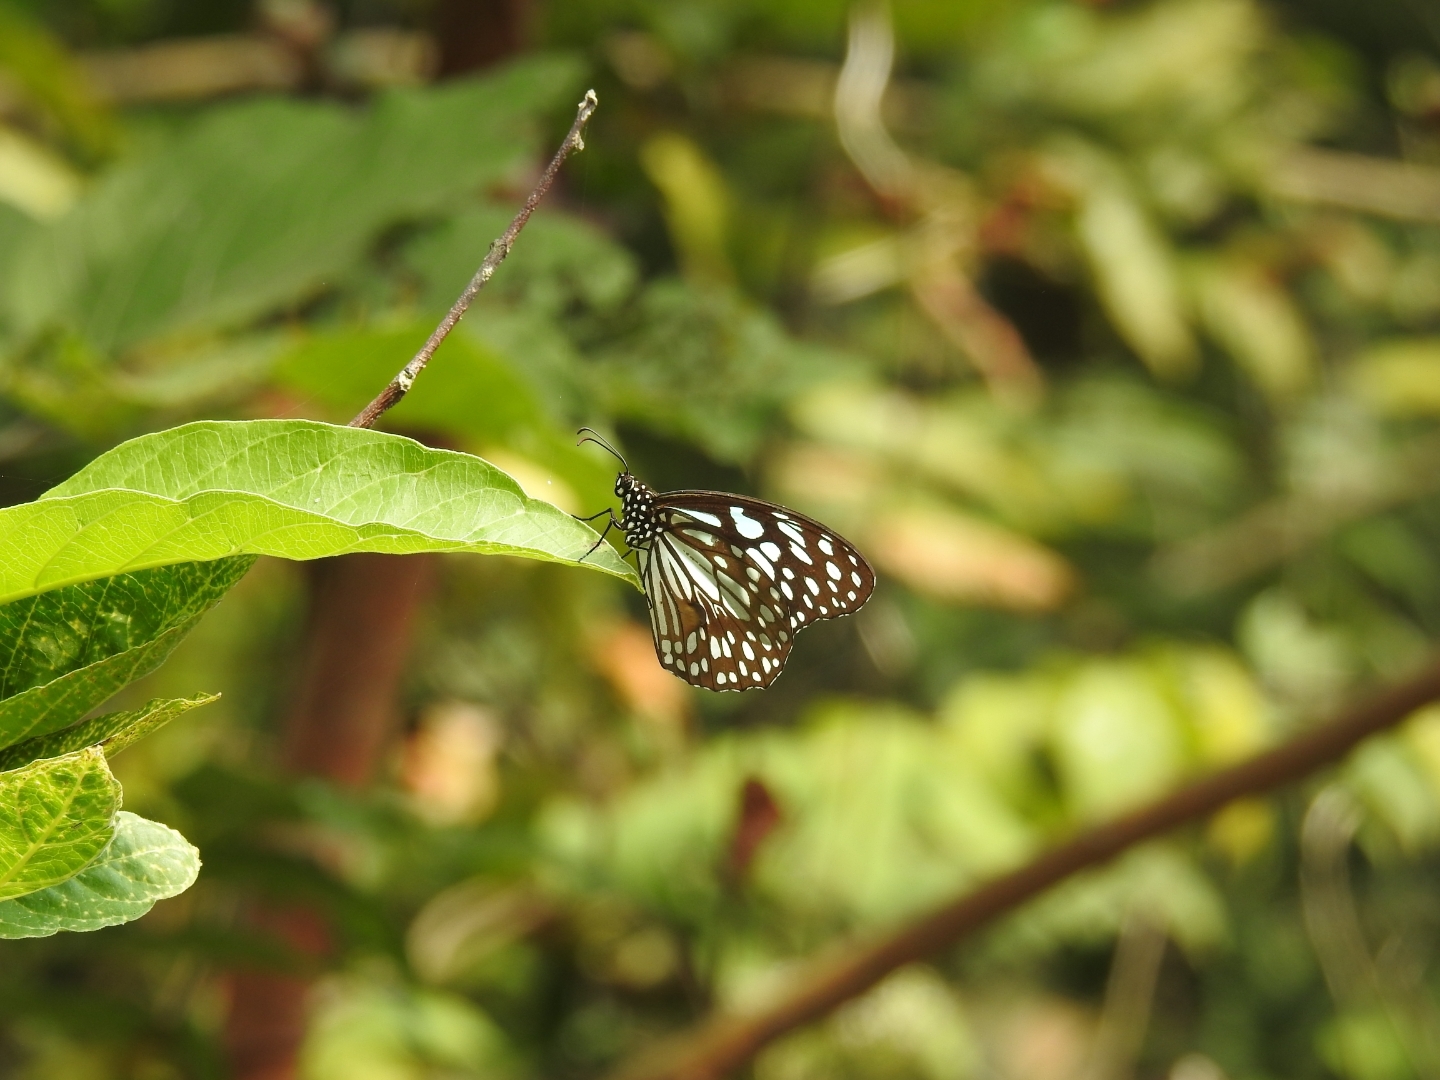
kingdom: Animalia
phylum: Arthropoda
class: Insecta
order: Lepidoptera
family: Nymphalidae
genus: Tirumala
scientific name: Tirumala limniace
